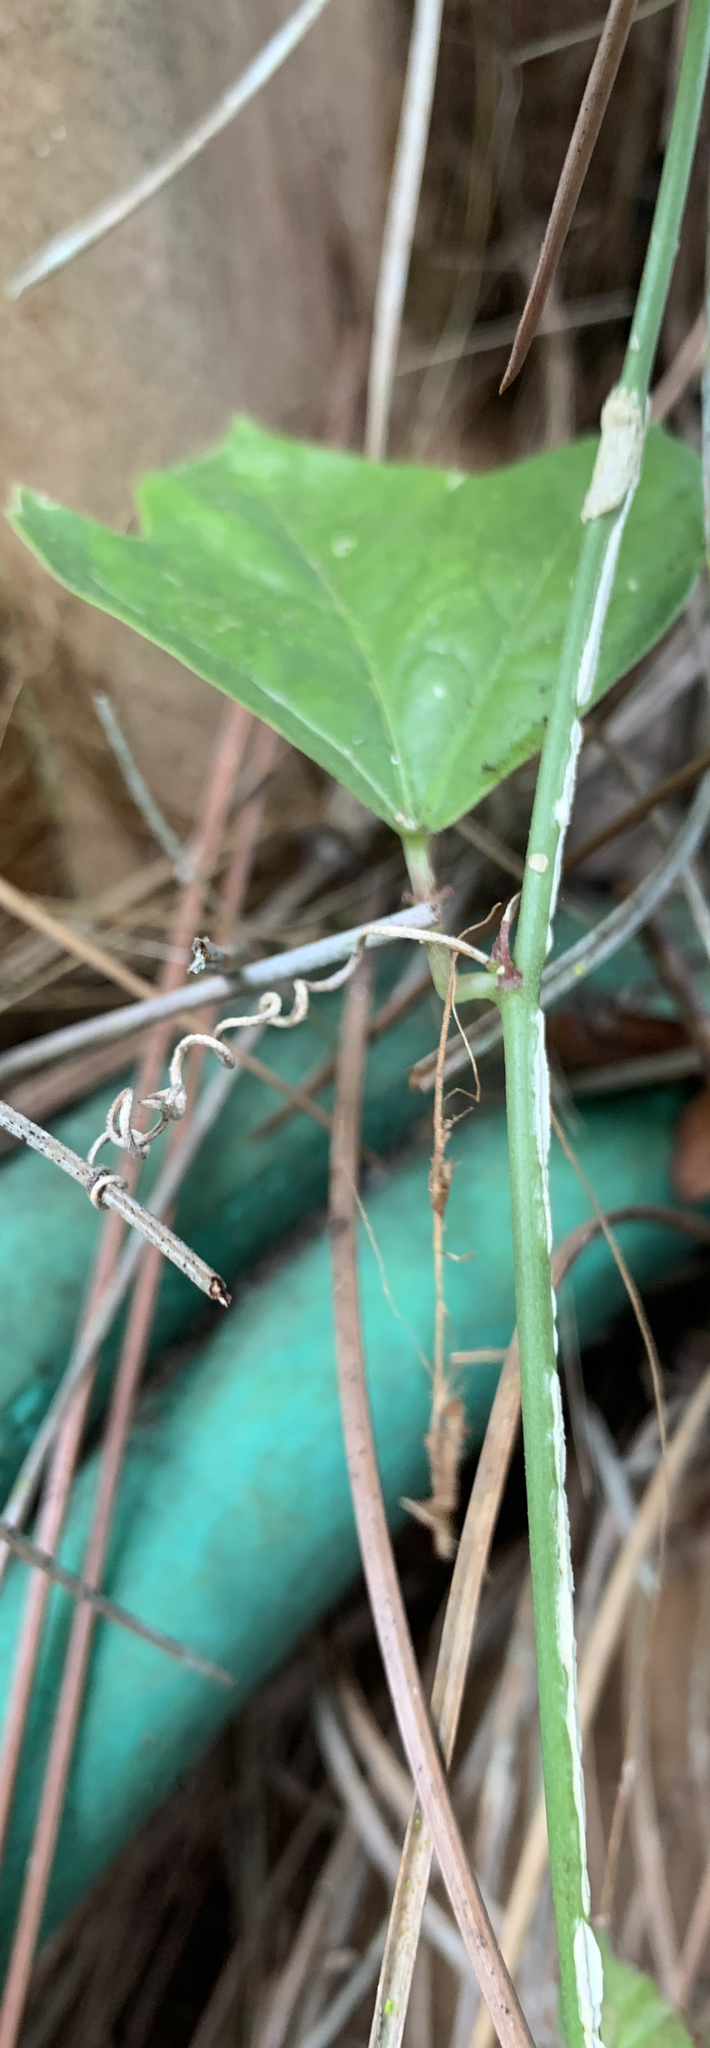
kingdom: Plantae
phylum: Tracheophyta
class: Magnoliopsida
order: Malpighiales
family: Passifloraceae
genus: Passiflora
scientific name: Passiflora pallida
